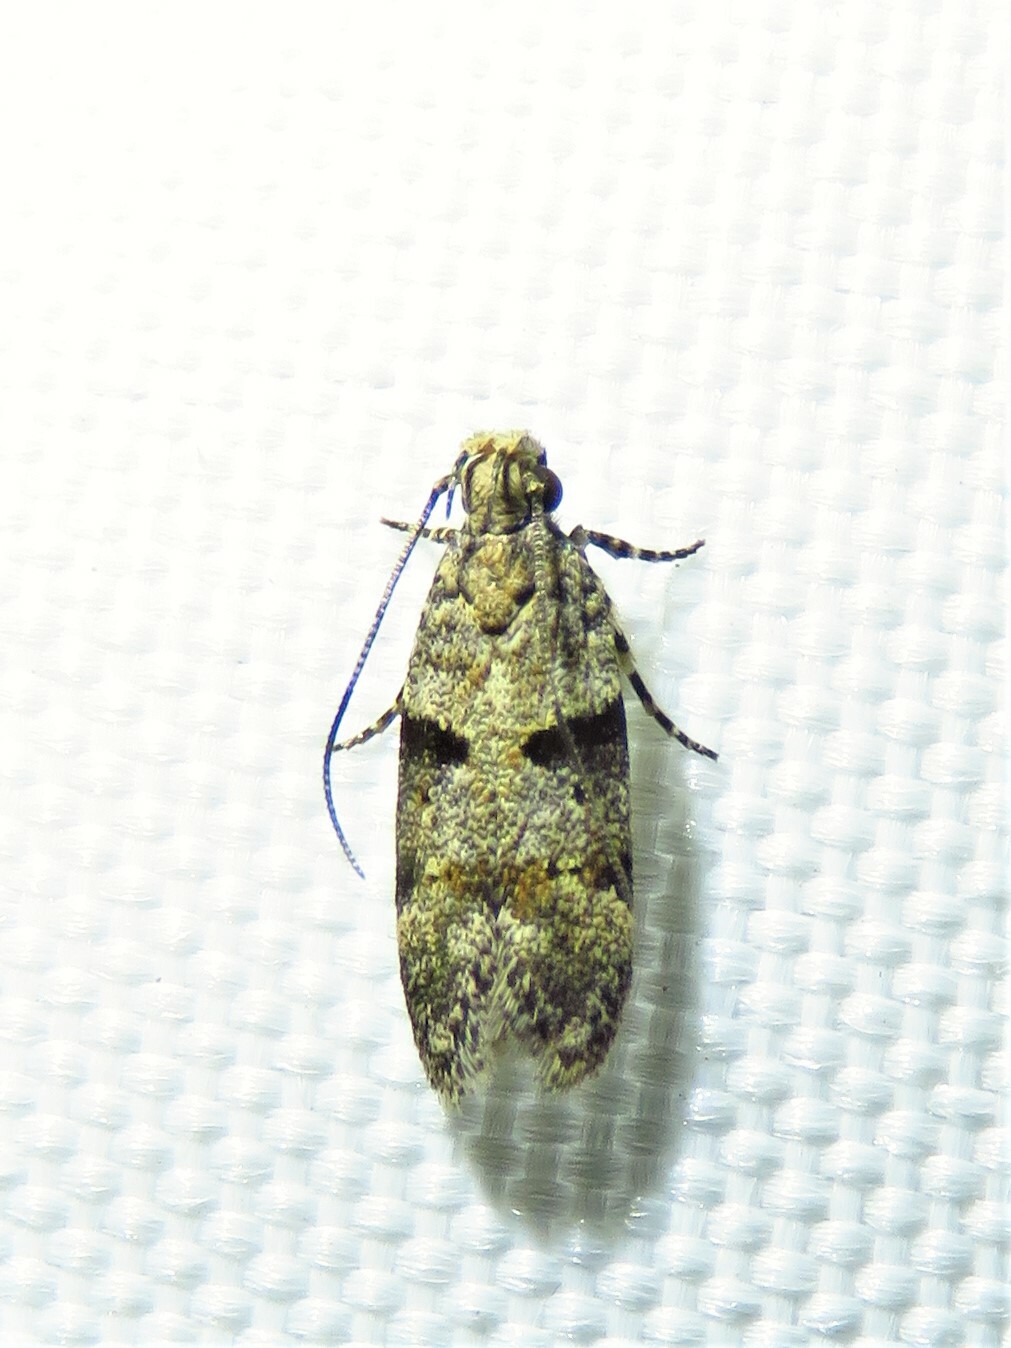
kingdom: Animalia
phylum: Arthropoda
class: Insecta
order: Lepidoptera
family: Gelechiidae
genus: Faculta
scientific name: Faculta inaequalis
